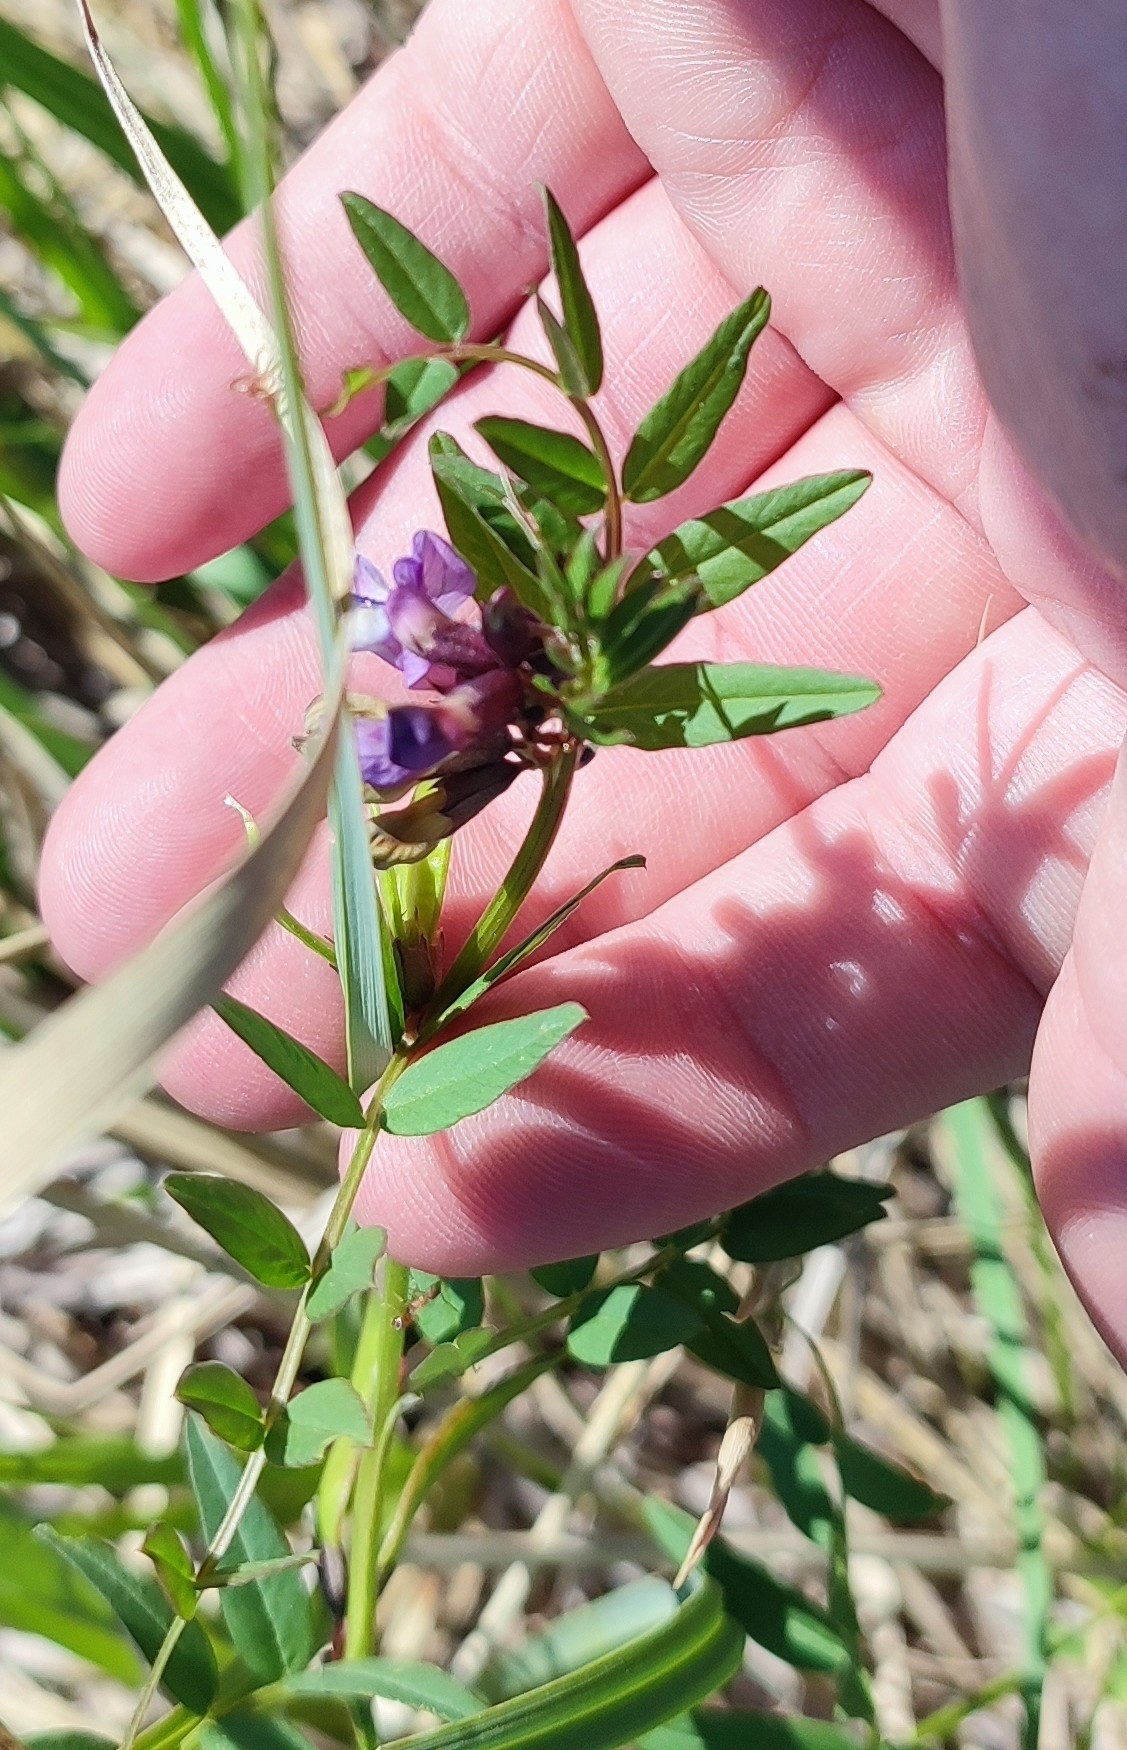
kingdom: Plantae
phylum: Tracheophyta
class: Magnoliopsida
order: Fabales
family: Fabaceae
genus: Vicia
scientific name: Vicia sepium
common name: Bush vetch
